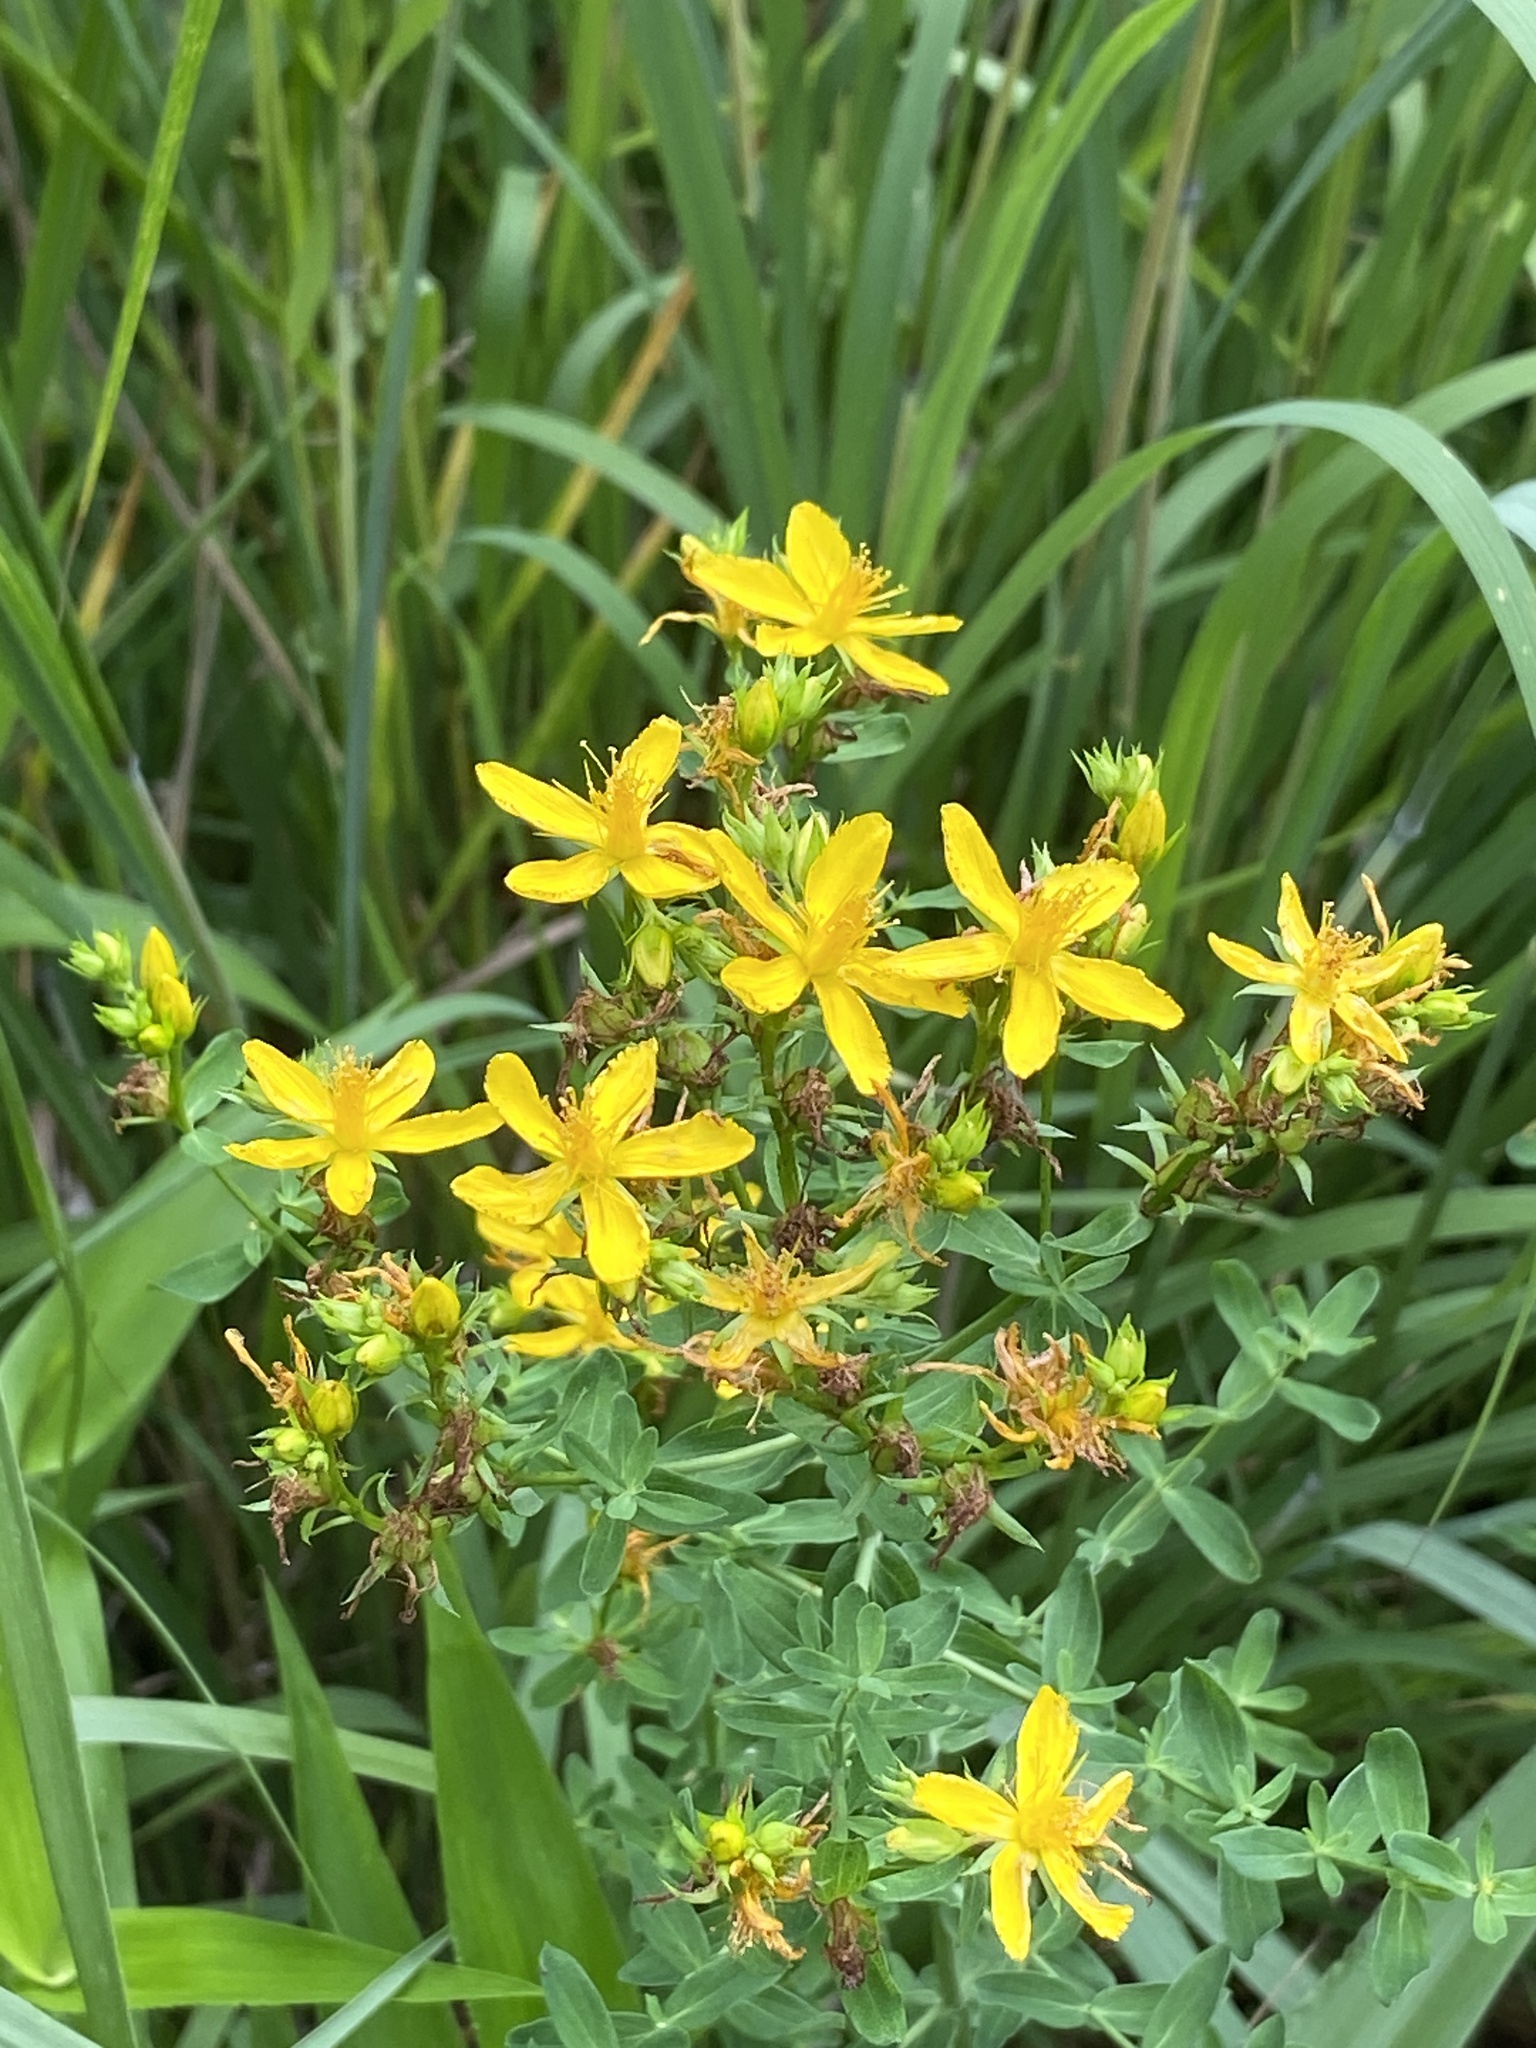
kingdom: Plantae
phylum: Tracheophyta
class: Magnoliopsida
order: Malpighiales
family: Hypericaceae
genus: Hypericum
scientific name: Hypericum perforatum
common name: Common st. johnswort
